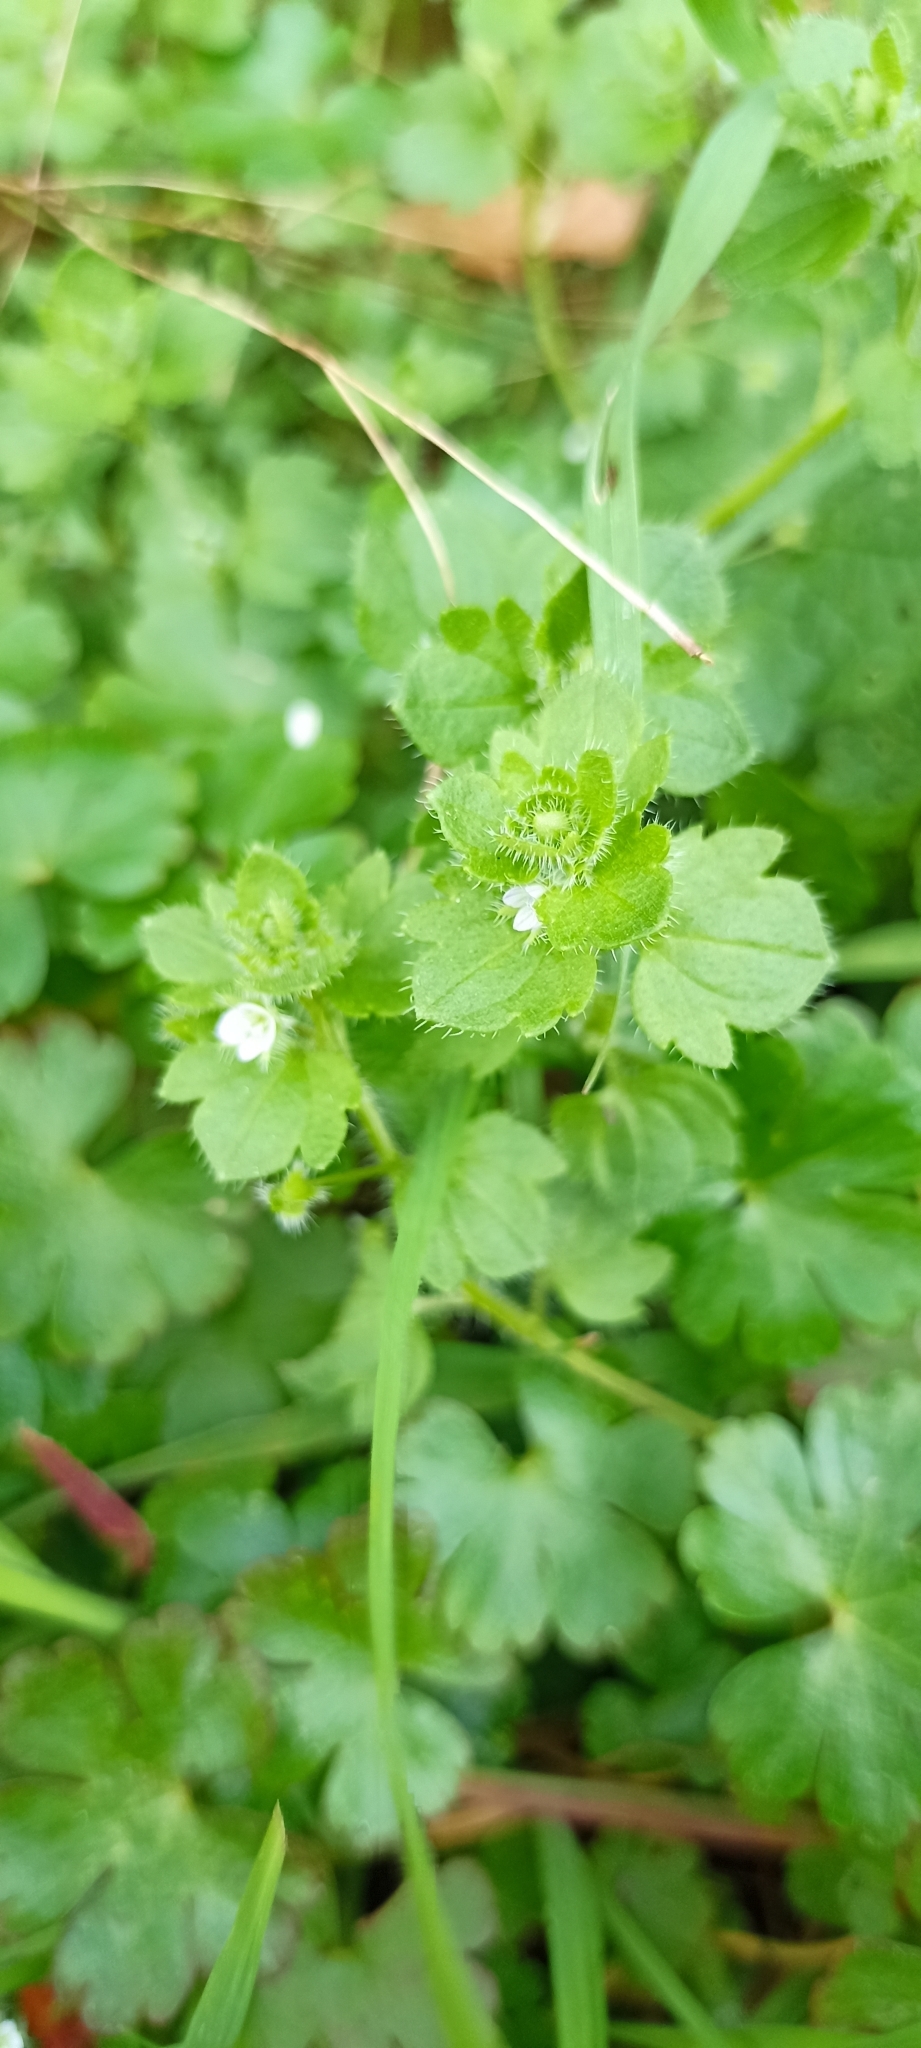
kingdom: Plantae
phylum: Tracheophyta
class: Magnoliopsida
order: Lamiales
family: Plantaginaceae
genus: Veronica
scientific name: Veronica sublobata
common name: False ivy-leaved speedwell
